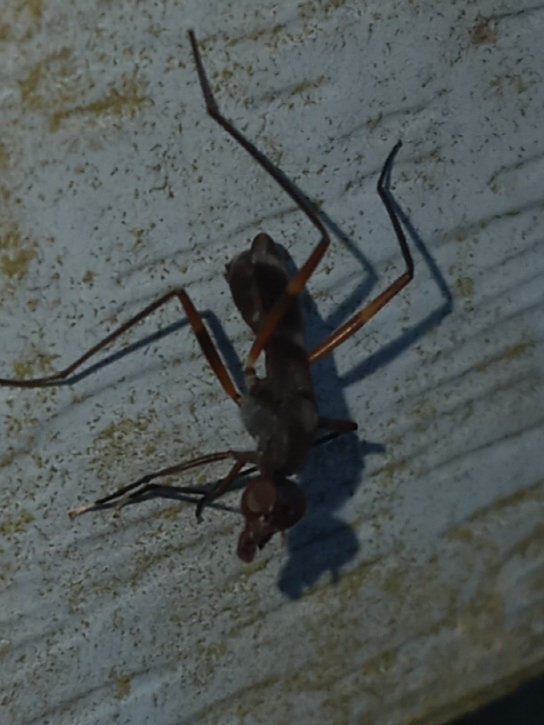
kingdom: Animalia
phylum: Arthropoda
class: Insecta
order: Diptera
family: Micropezidae
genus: Taeniaptera
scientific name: Taeniaptera trivittata
